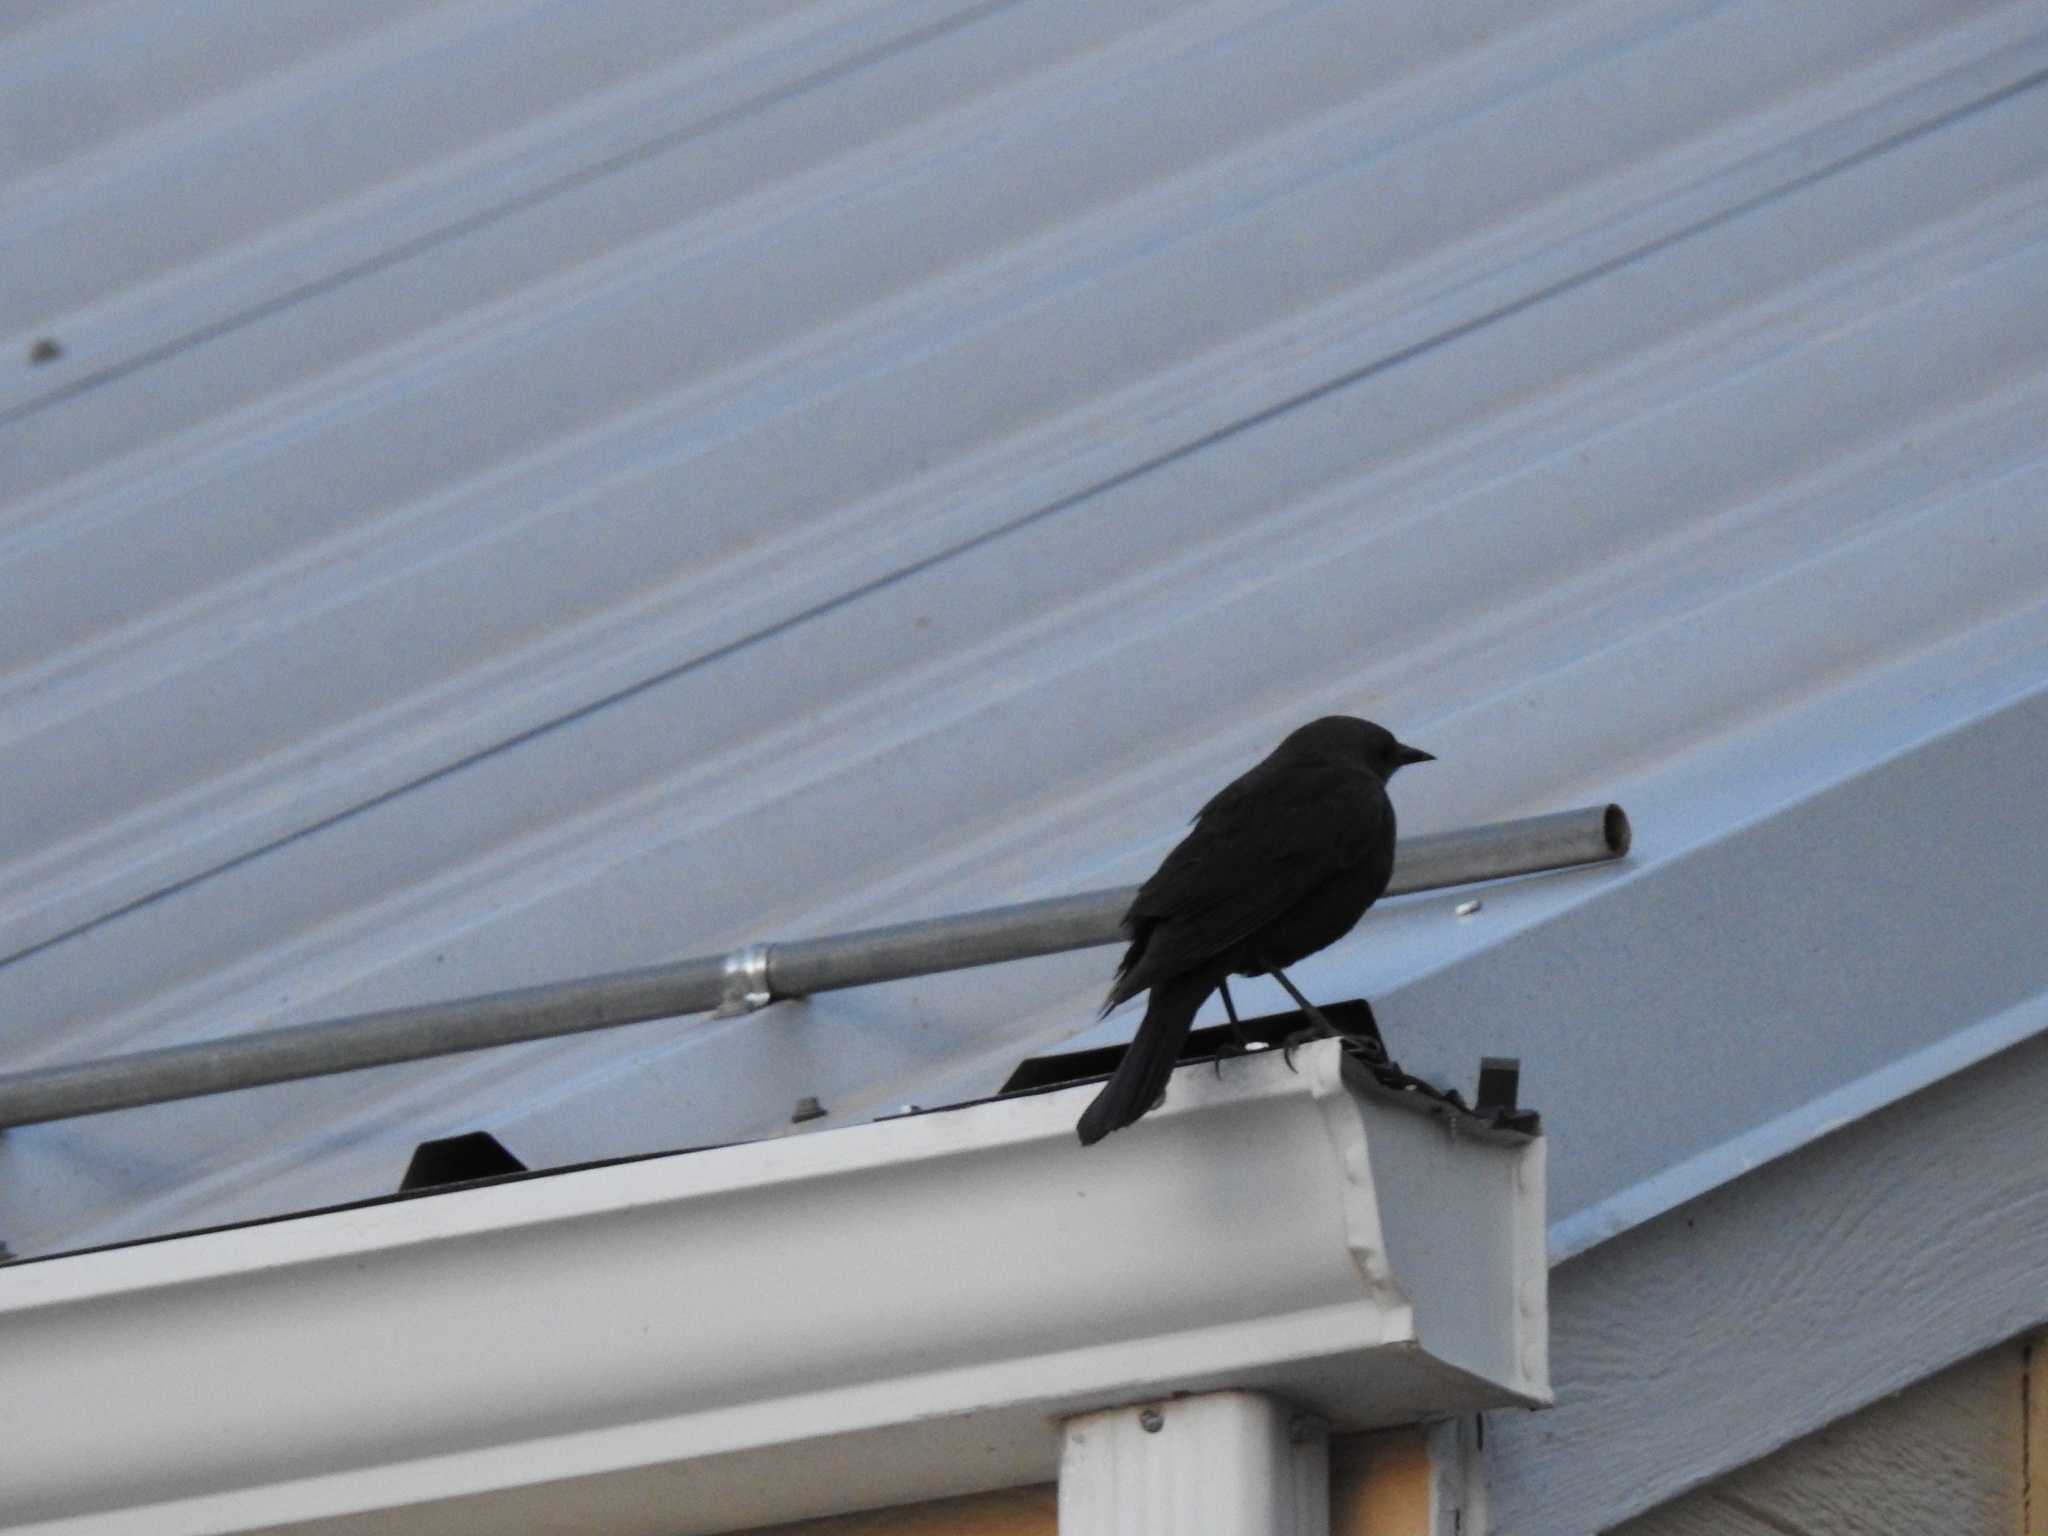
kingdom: Animalia
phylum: Chordata
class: Aves
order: Passeriformes
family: Icteridae
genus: Euphagus
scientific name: Euphagus cyanocephalus
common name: Brewer's blackbird
